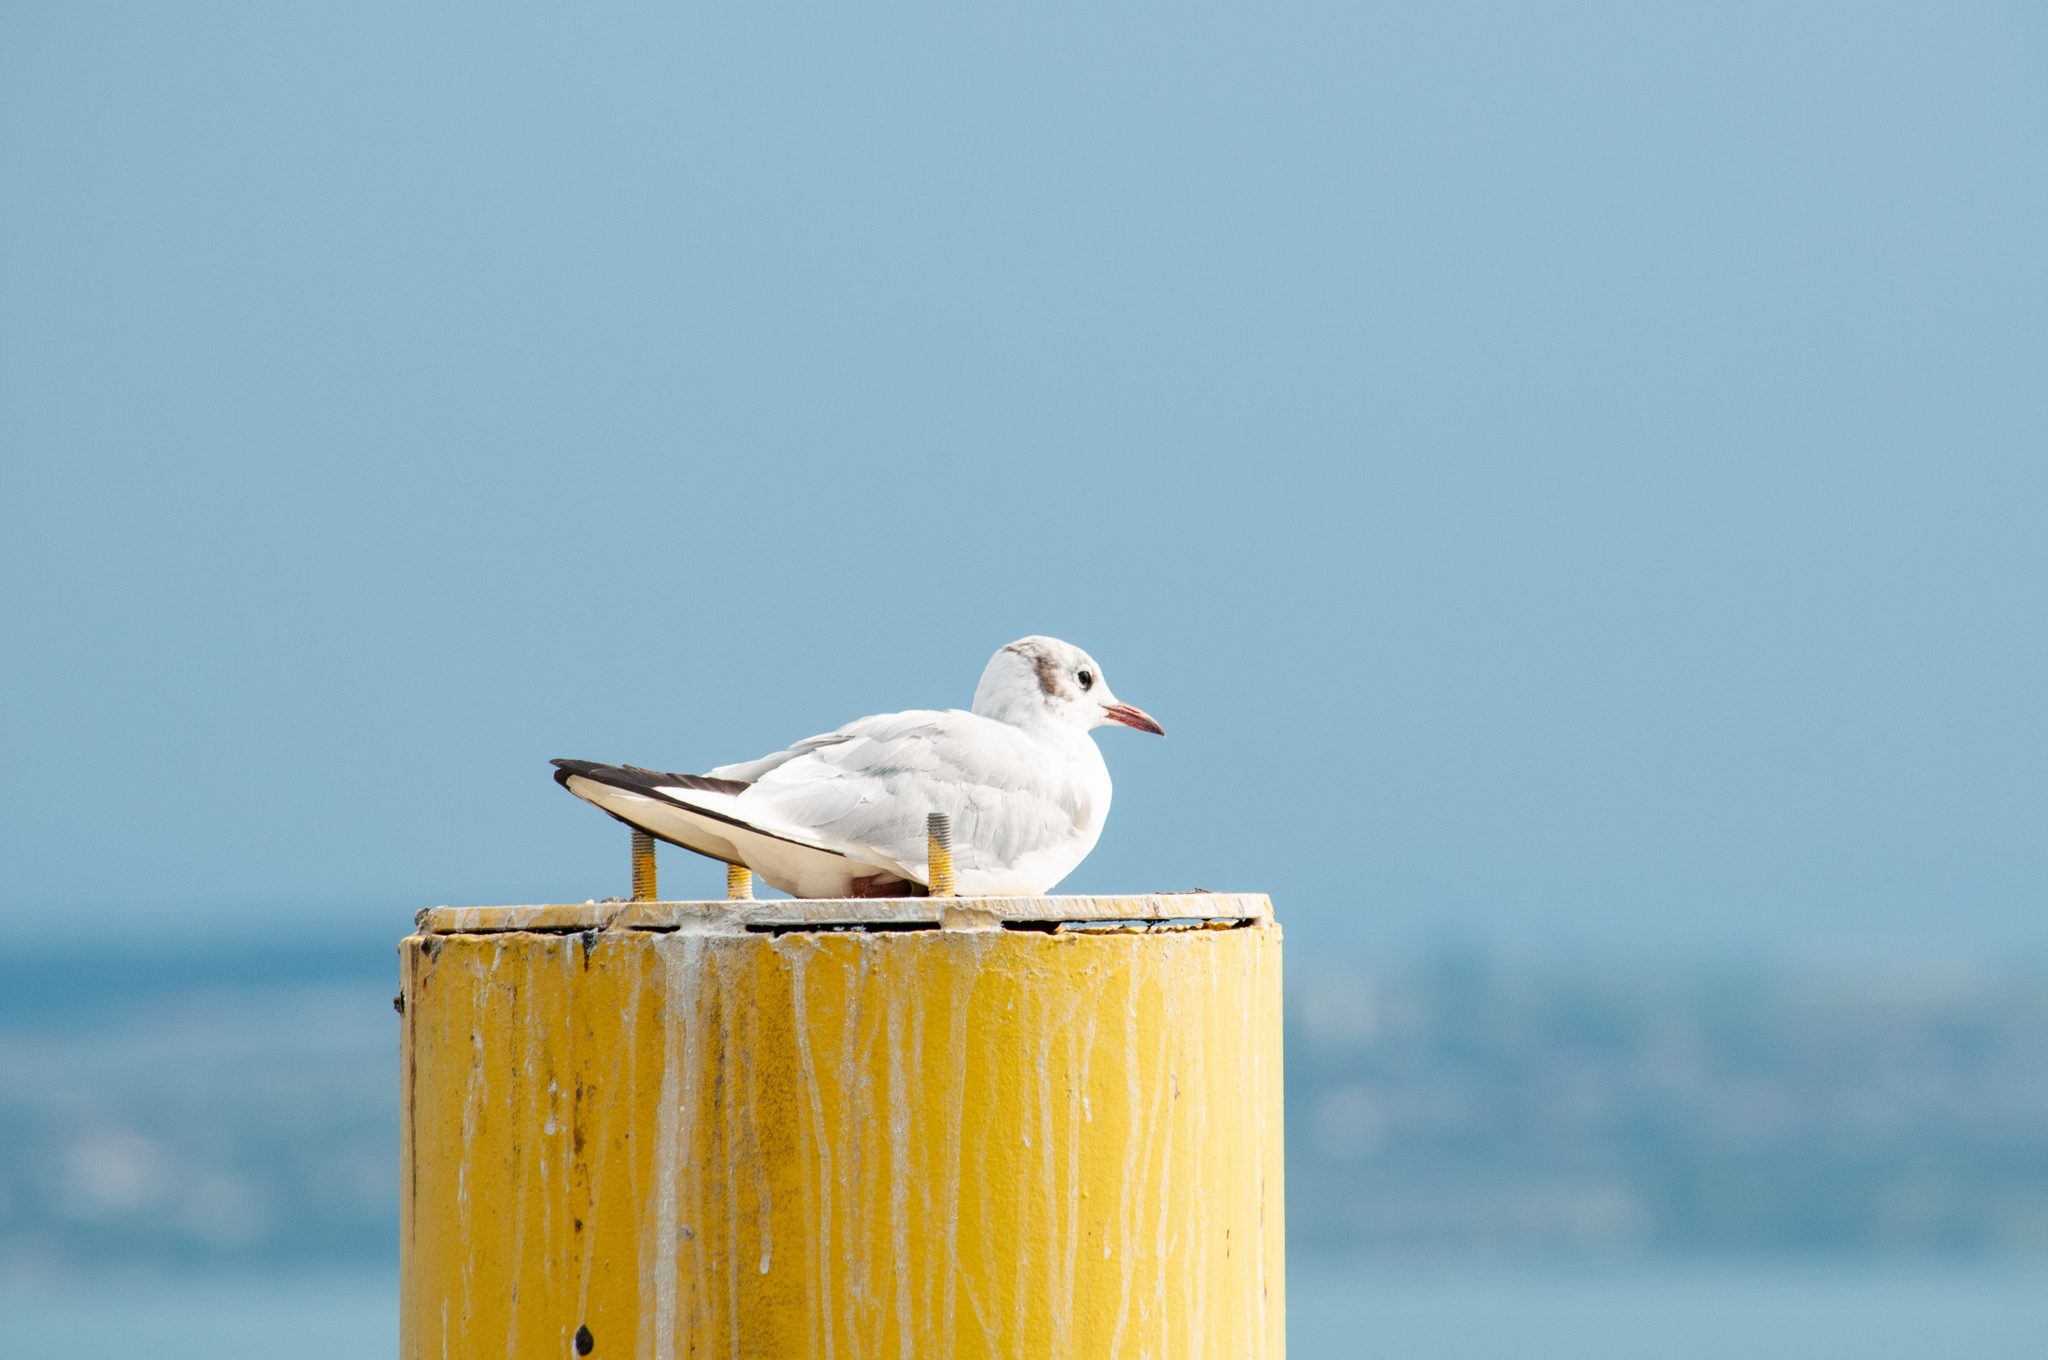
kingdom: Animalia
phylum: Chordata
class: Aves
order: Charadriiformes
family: Laridae
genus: Chroicocephalus
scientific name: Chroicocephalus ridibundus
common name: Black-headed gull
